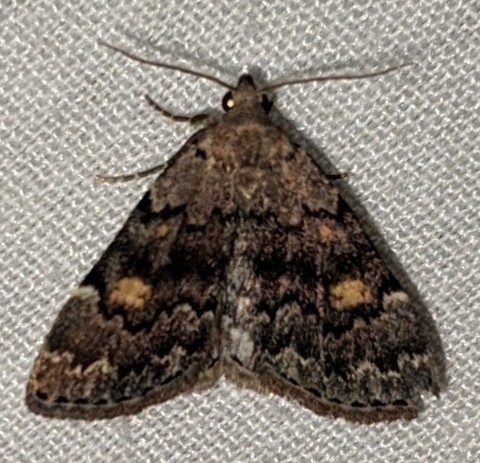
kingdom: Animalia
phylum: Arthropoda
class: Insecta
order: Lepidoptera
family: Erebidae
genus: Idia
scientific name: Idia aemula
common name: Common idia moth
